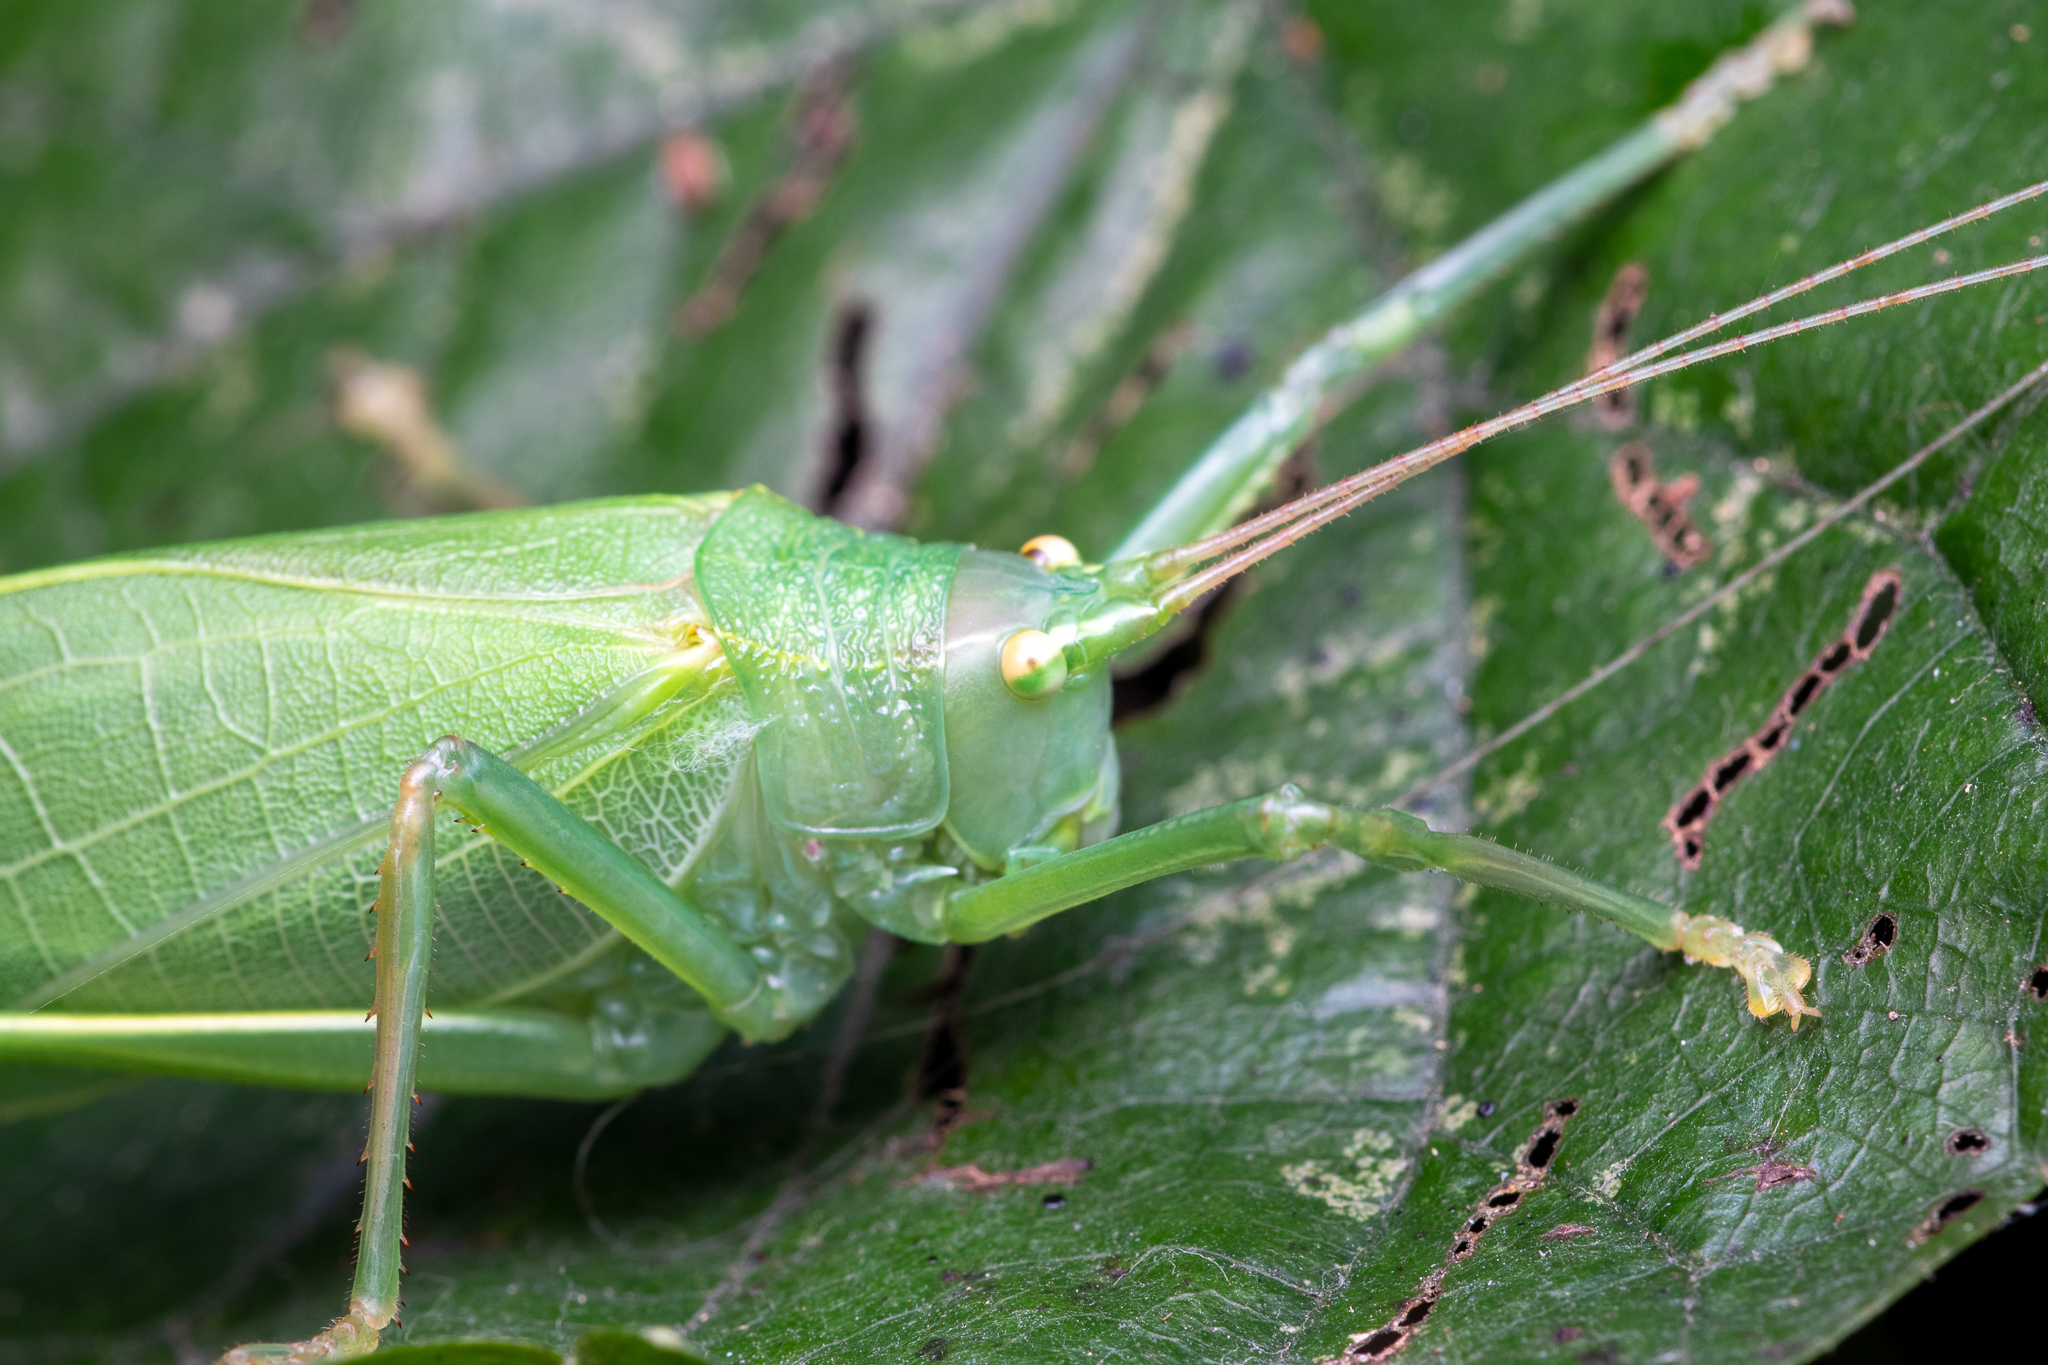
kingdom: Animalia
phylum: Arthropoda
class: Insecta
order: Orthoptera
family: Tettigoniidae
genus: Pterophylla
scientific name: Pterophylla camellifolia
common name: Common true katydid
